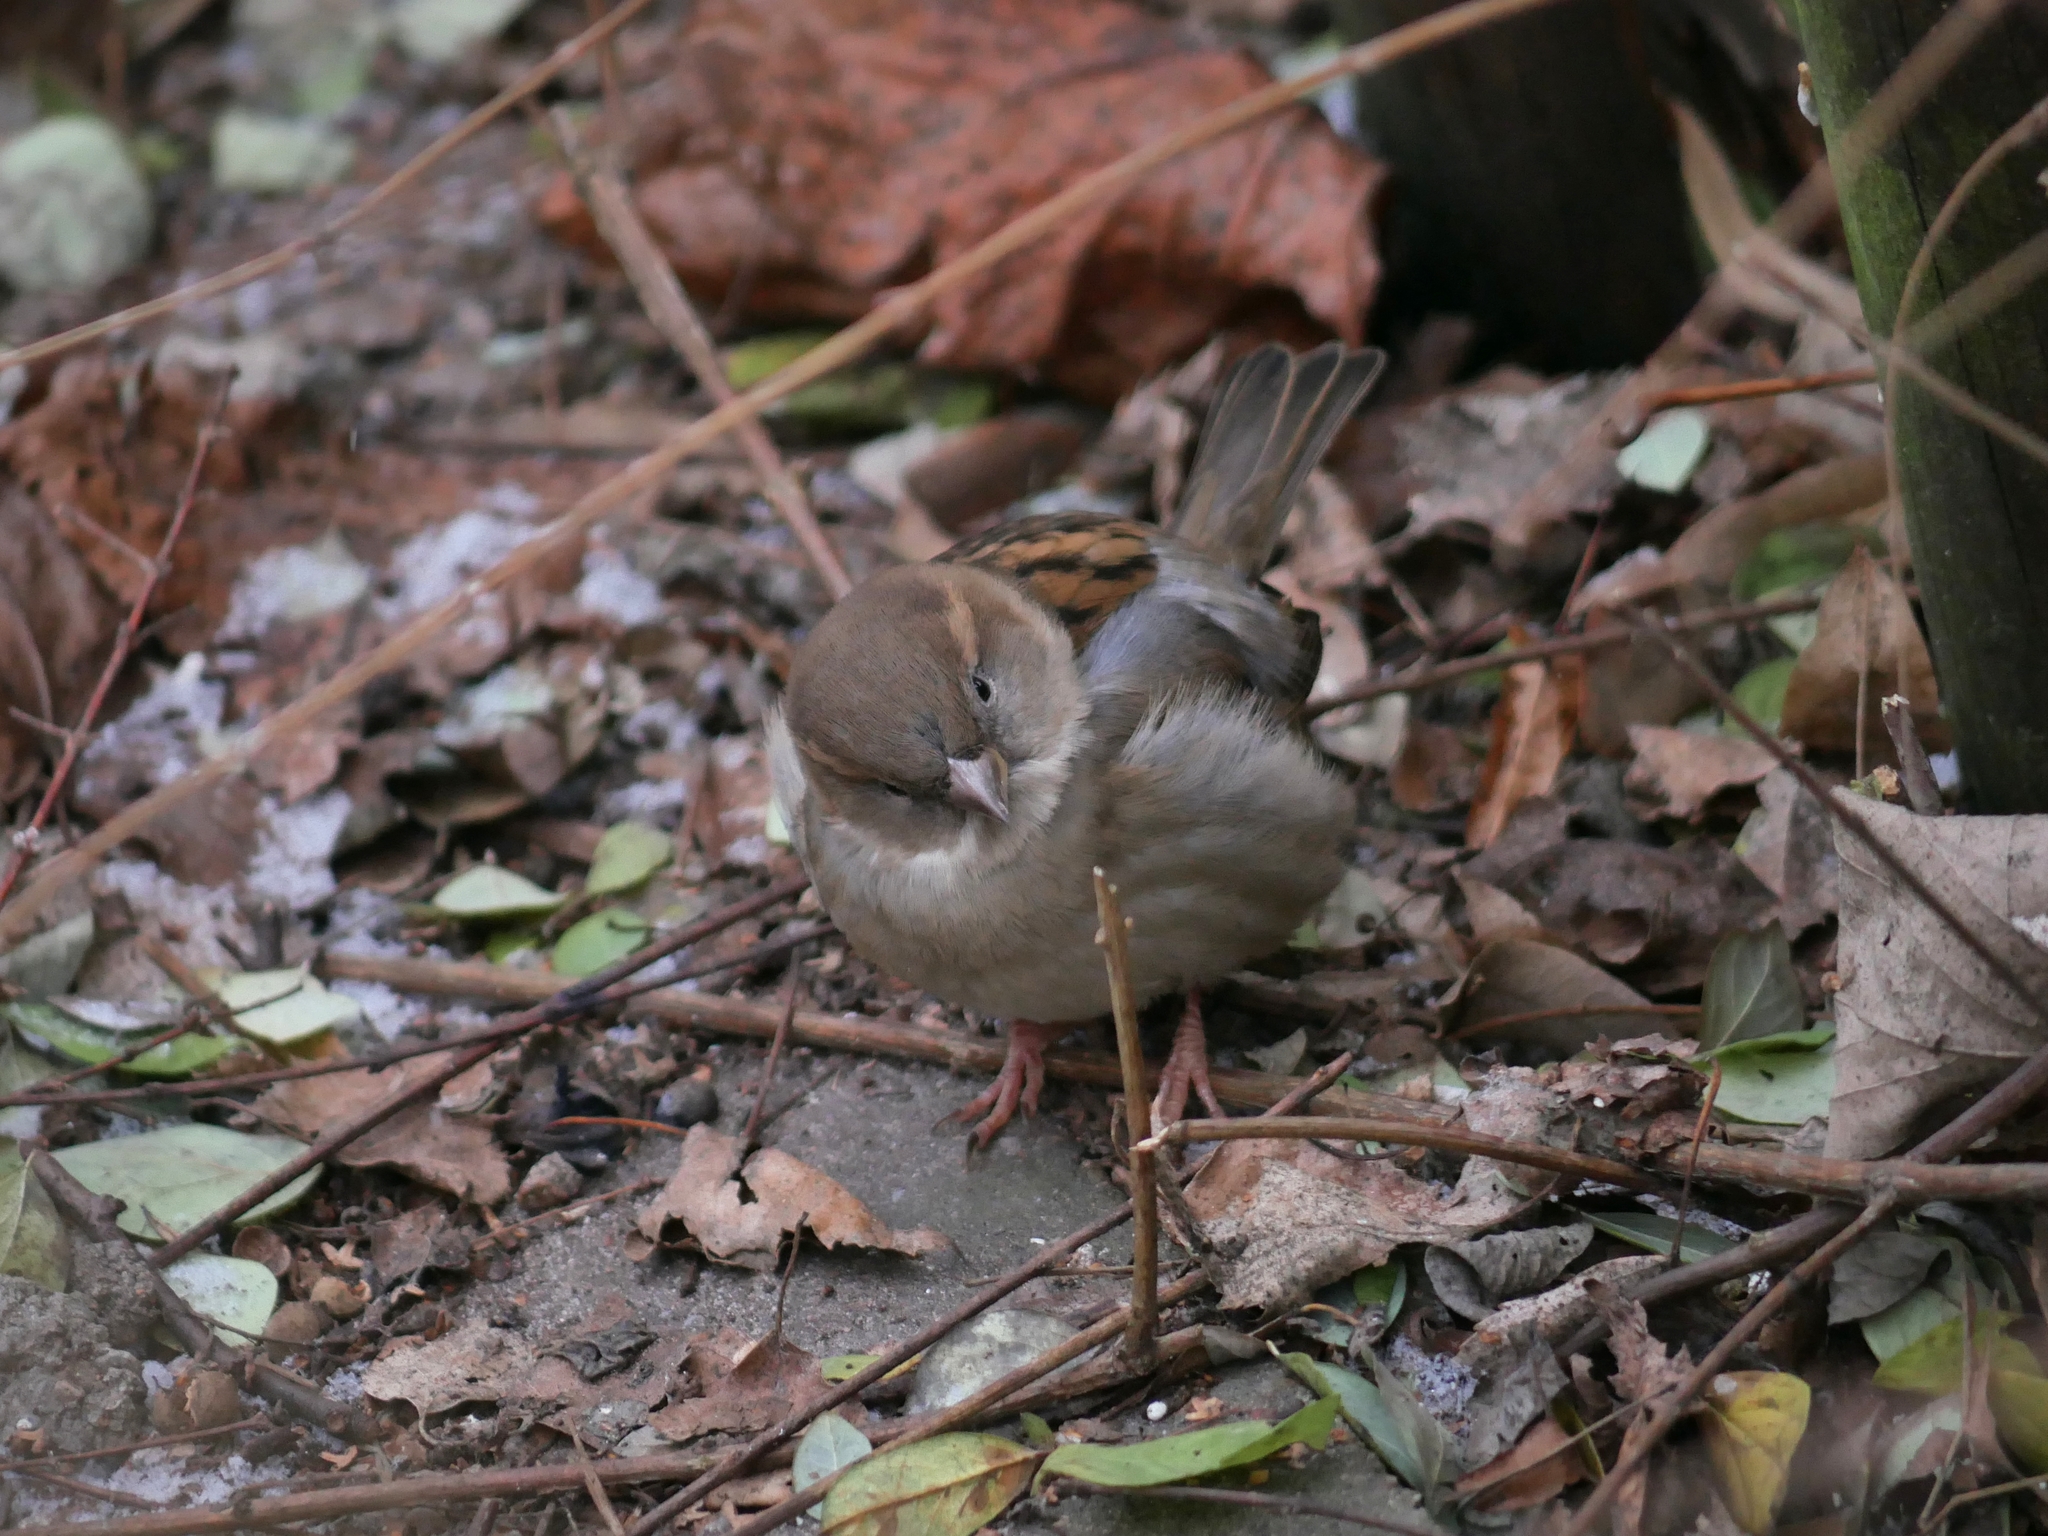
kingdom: Animalia
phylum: Chordata
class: Aves
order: Passeriformes
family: Passeridae
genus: Passer
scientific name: Passer domesticus
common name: House sparrow
